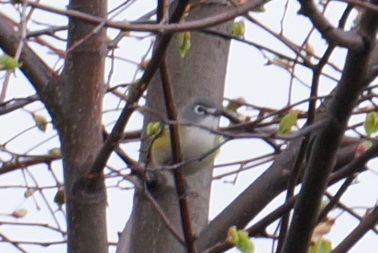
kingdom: Animalia
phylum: Chordata
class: Aves
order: Passeriformes
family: Vireonidae
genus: Vireo
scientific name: Vireo solitarius
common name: Blue-headed vireo
